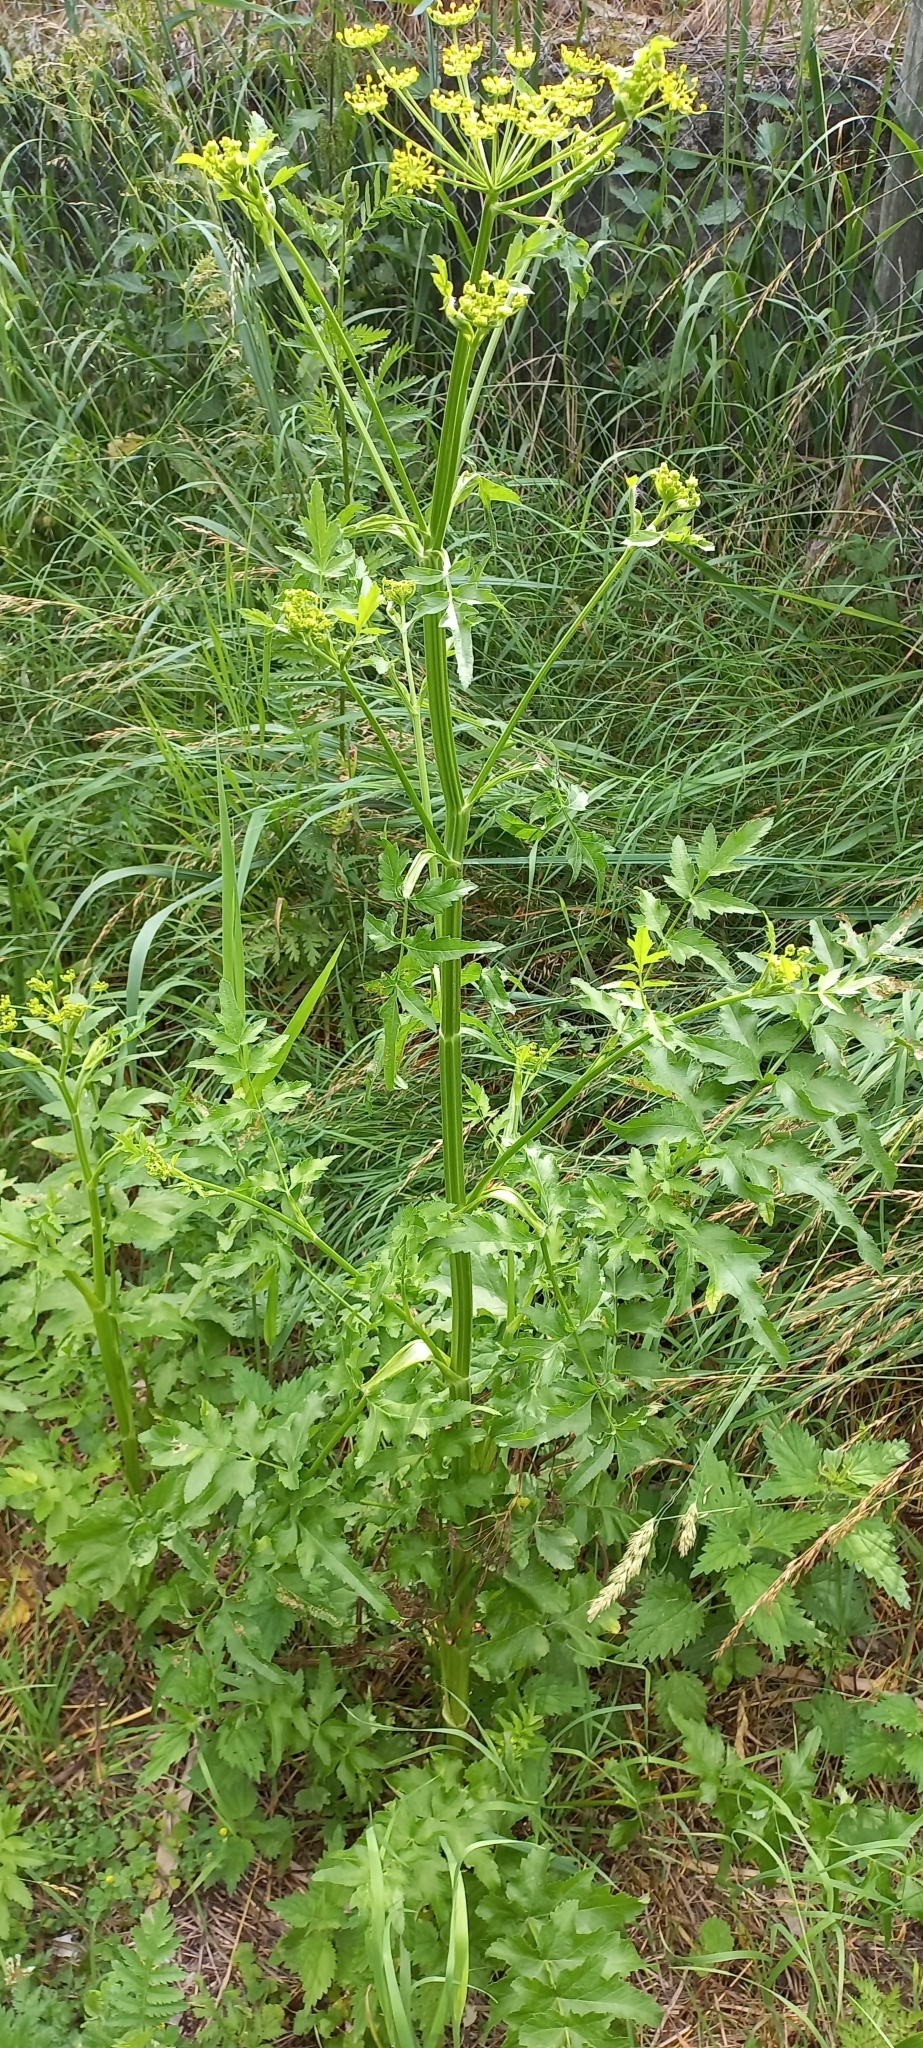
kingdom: Plantae
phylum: Tracheophyta
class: Magnoliopsida
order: Apiales
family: Apiaceae
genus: Pastinaca
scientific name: Pastinaca sativa
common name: Wild parsnip
